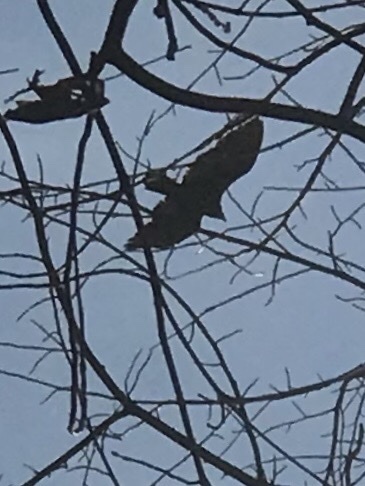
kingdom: Animalia
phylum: Chordata
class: Aves
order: Accipitriformes
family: Cathartidae
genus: Cathartes
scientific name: Cathartes aura
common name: Turkey vulture
